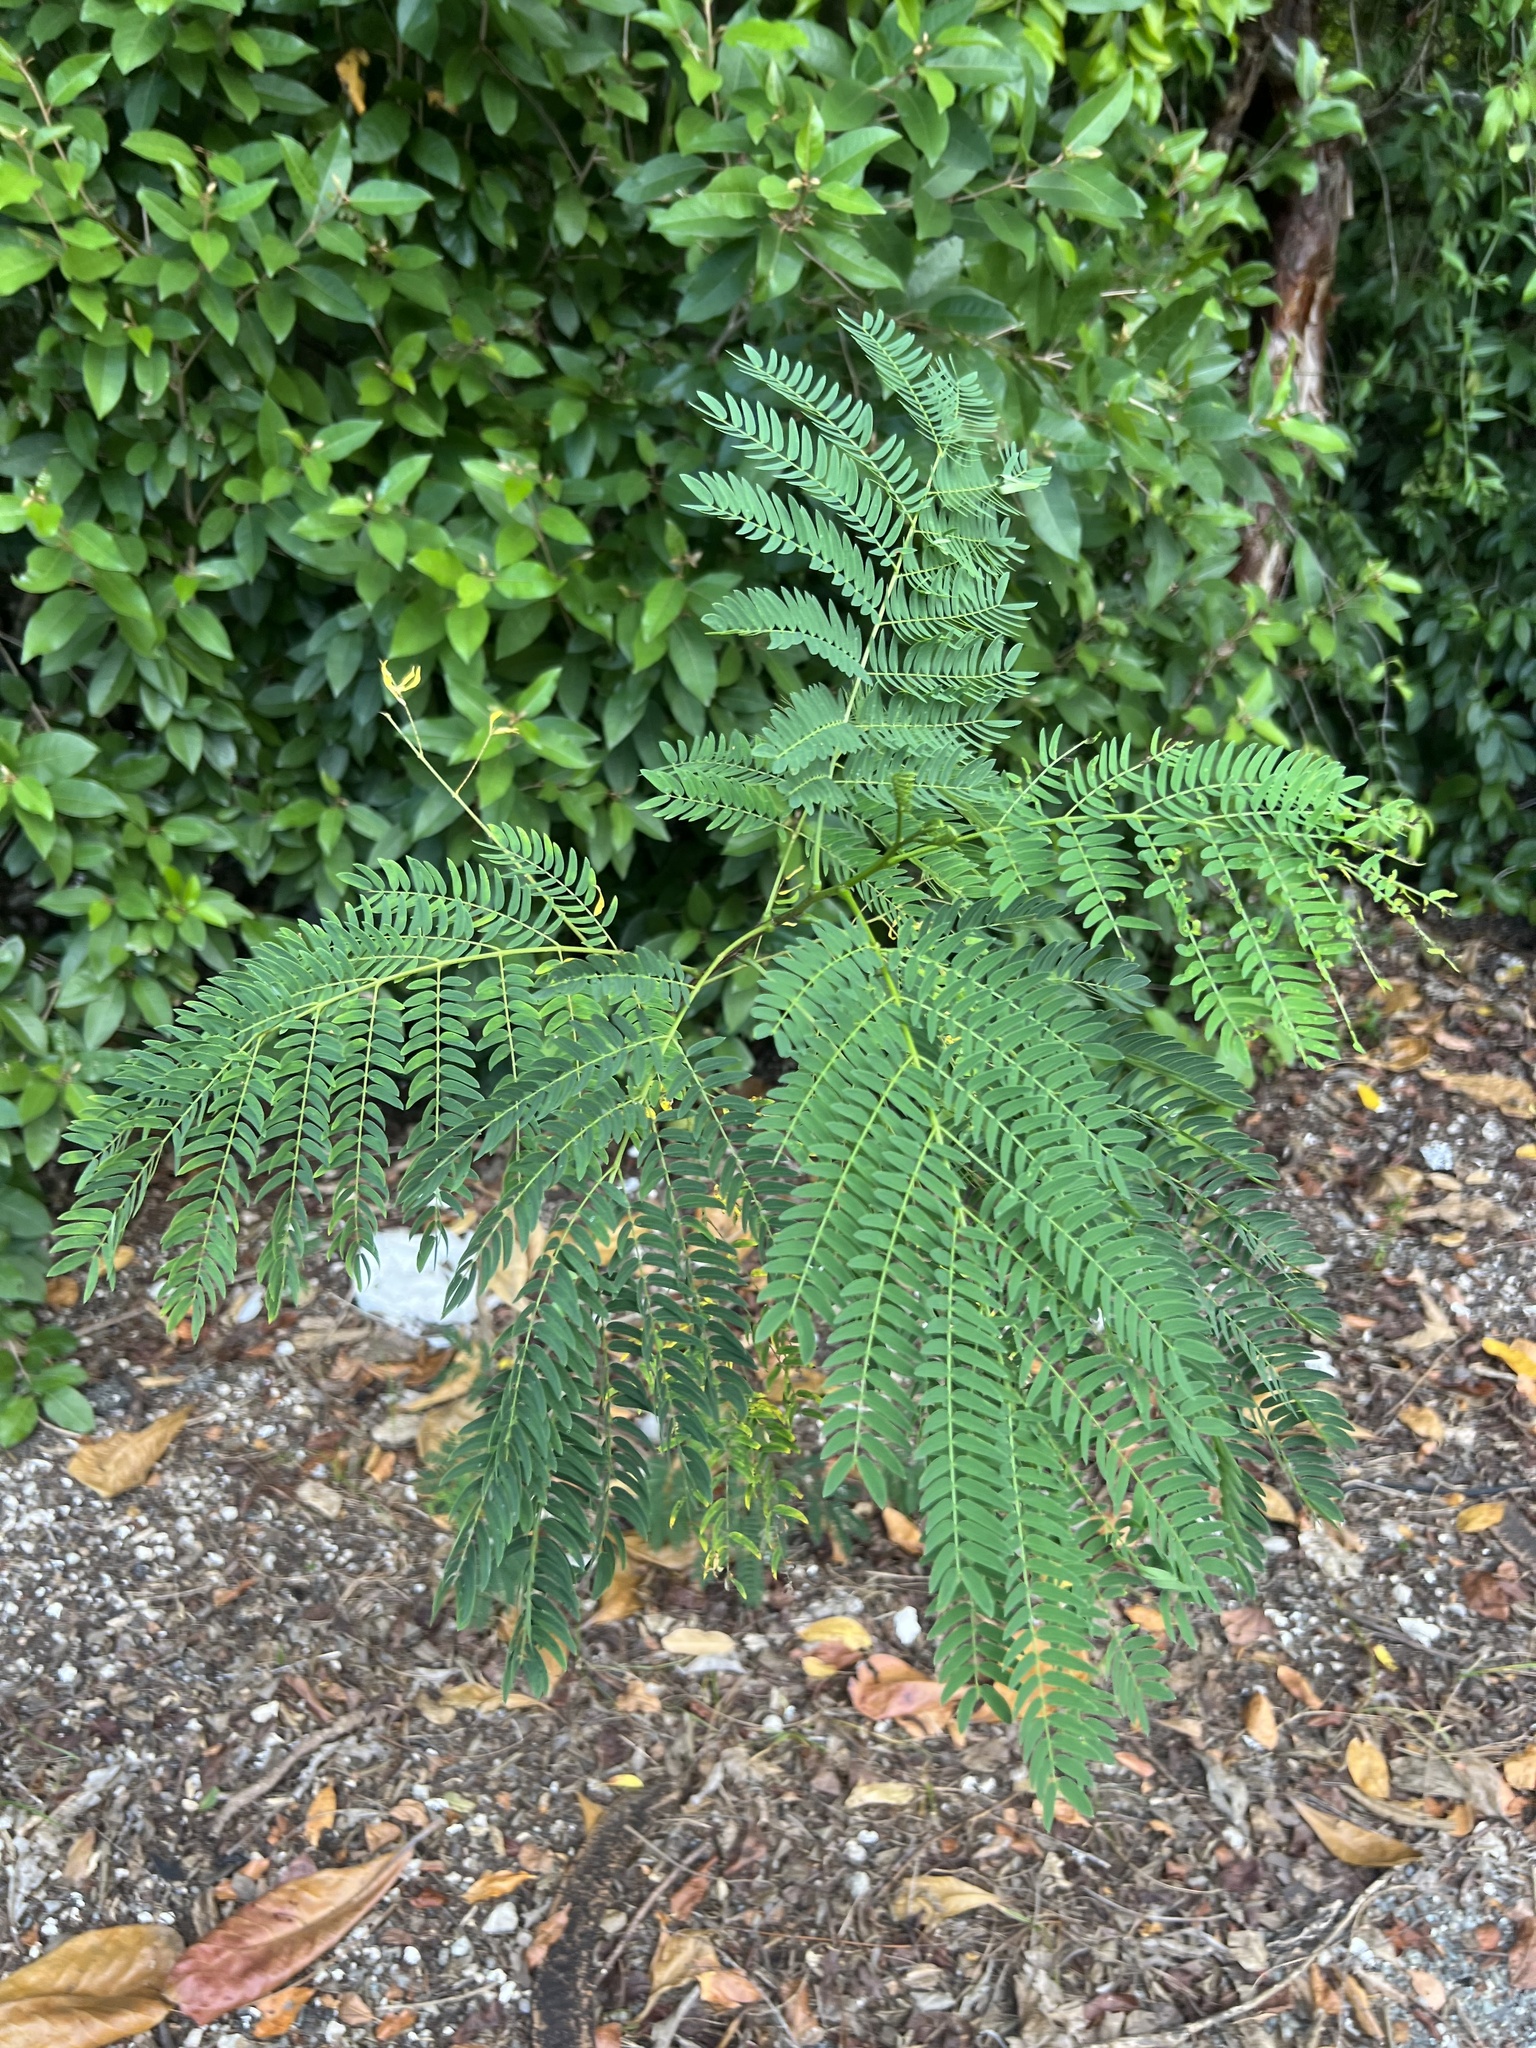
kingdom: Plantae
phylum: Tracheophyta
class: Magnoliopsida
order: Fabales
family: Fabaceae
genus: Leucaena
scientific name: Leucaena leucocephala
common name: White leadtree
